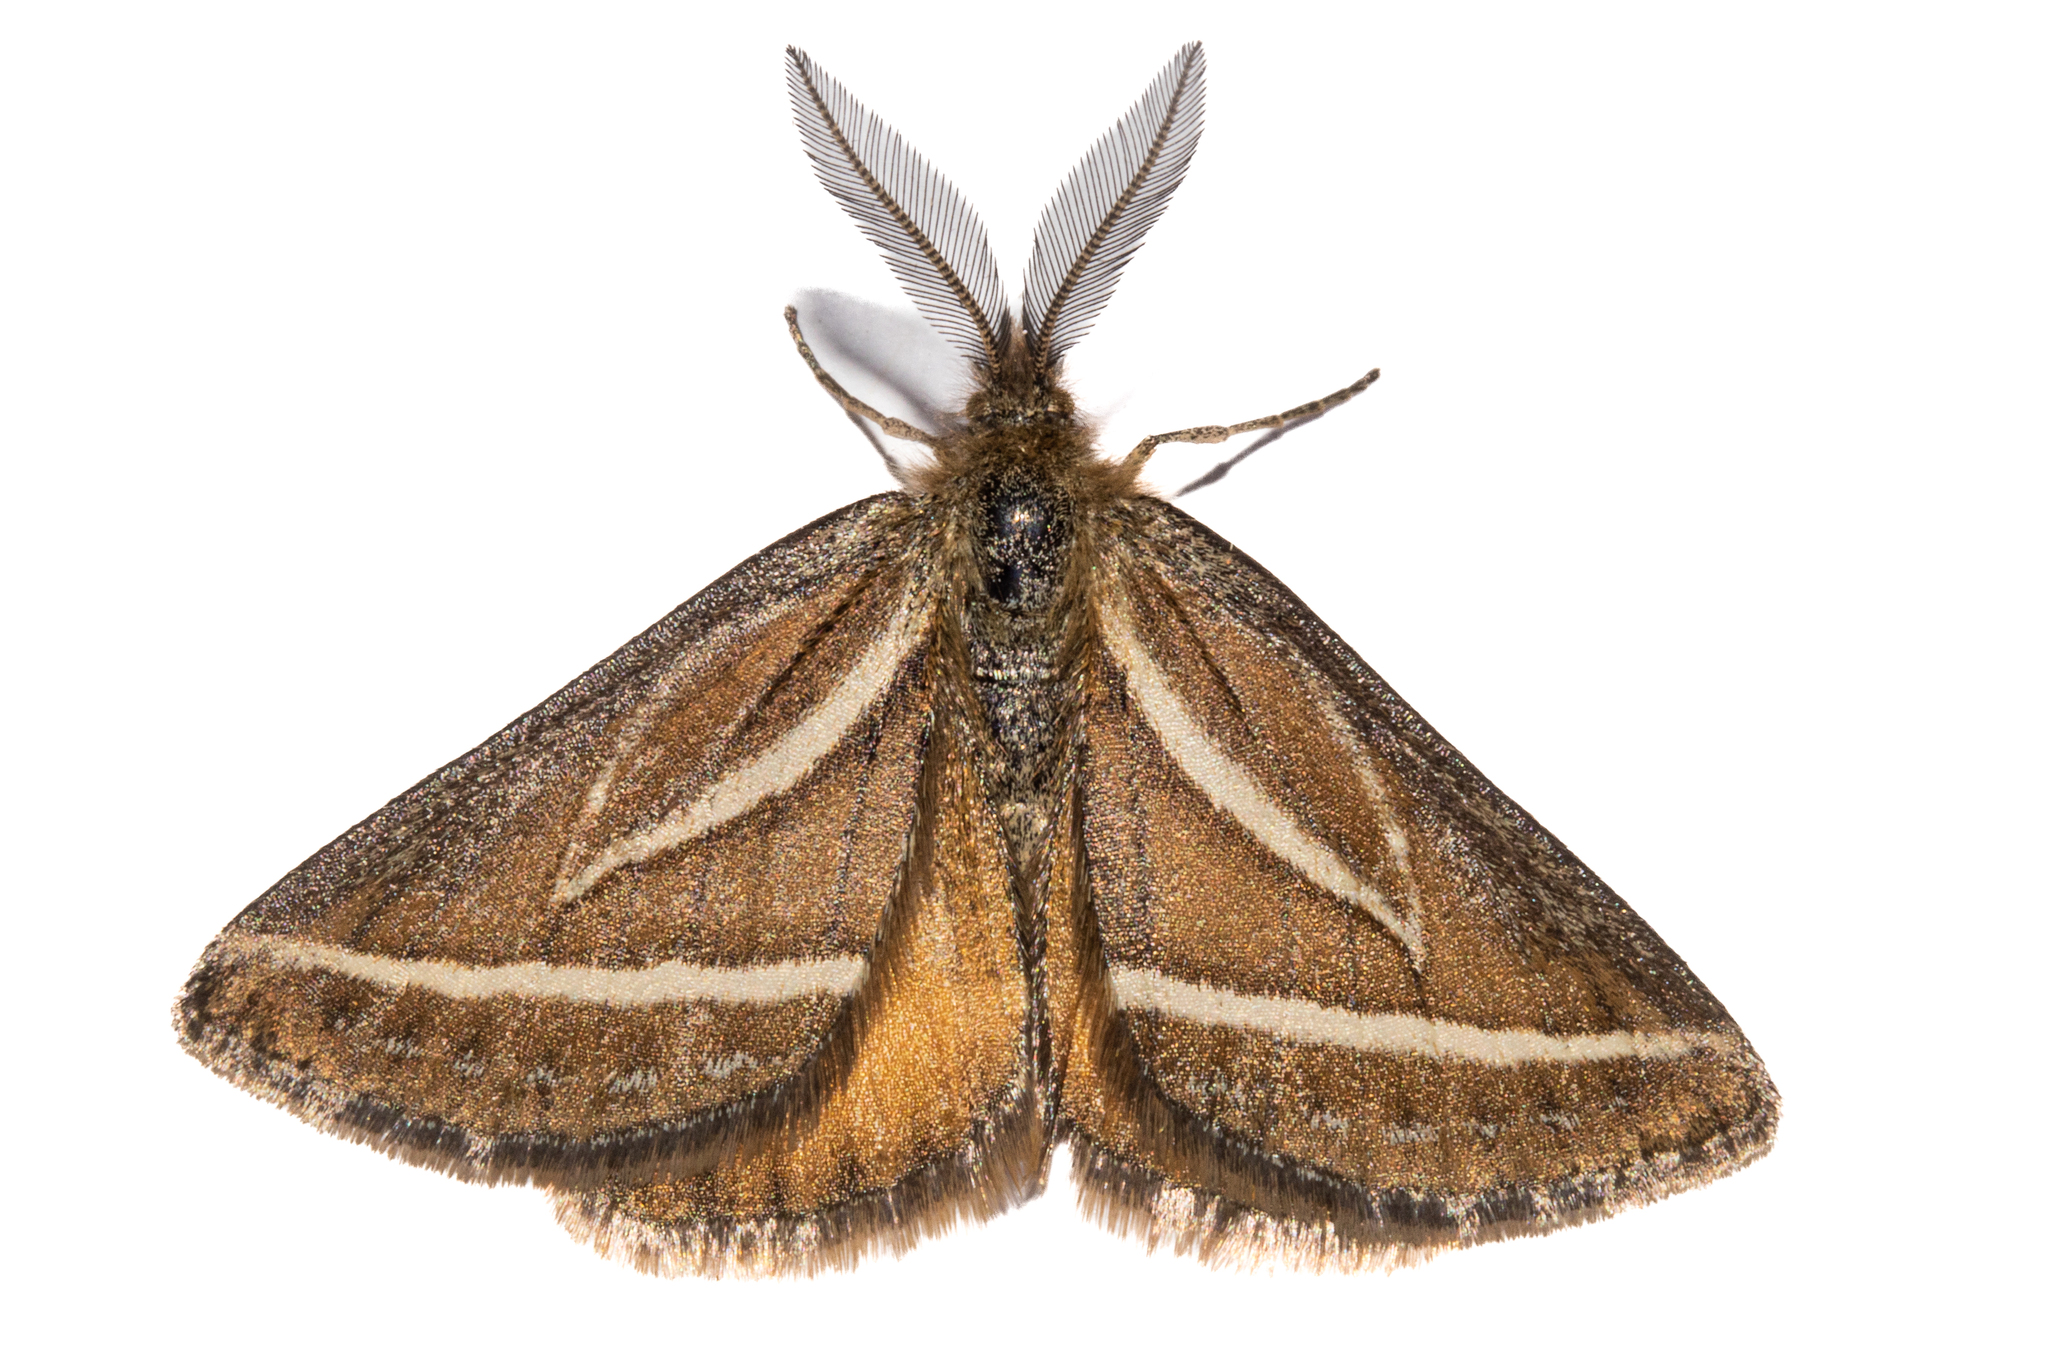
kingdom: Animalia
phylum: Arthropoda
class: Insecta
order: Lepidoptera
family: Geometridae
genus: Aponotoreas
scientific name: Aponotoreas insignis
